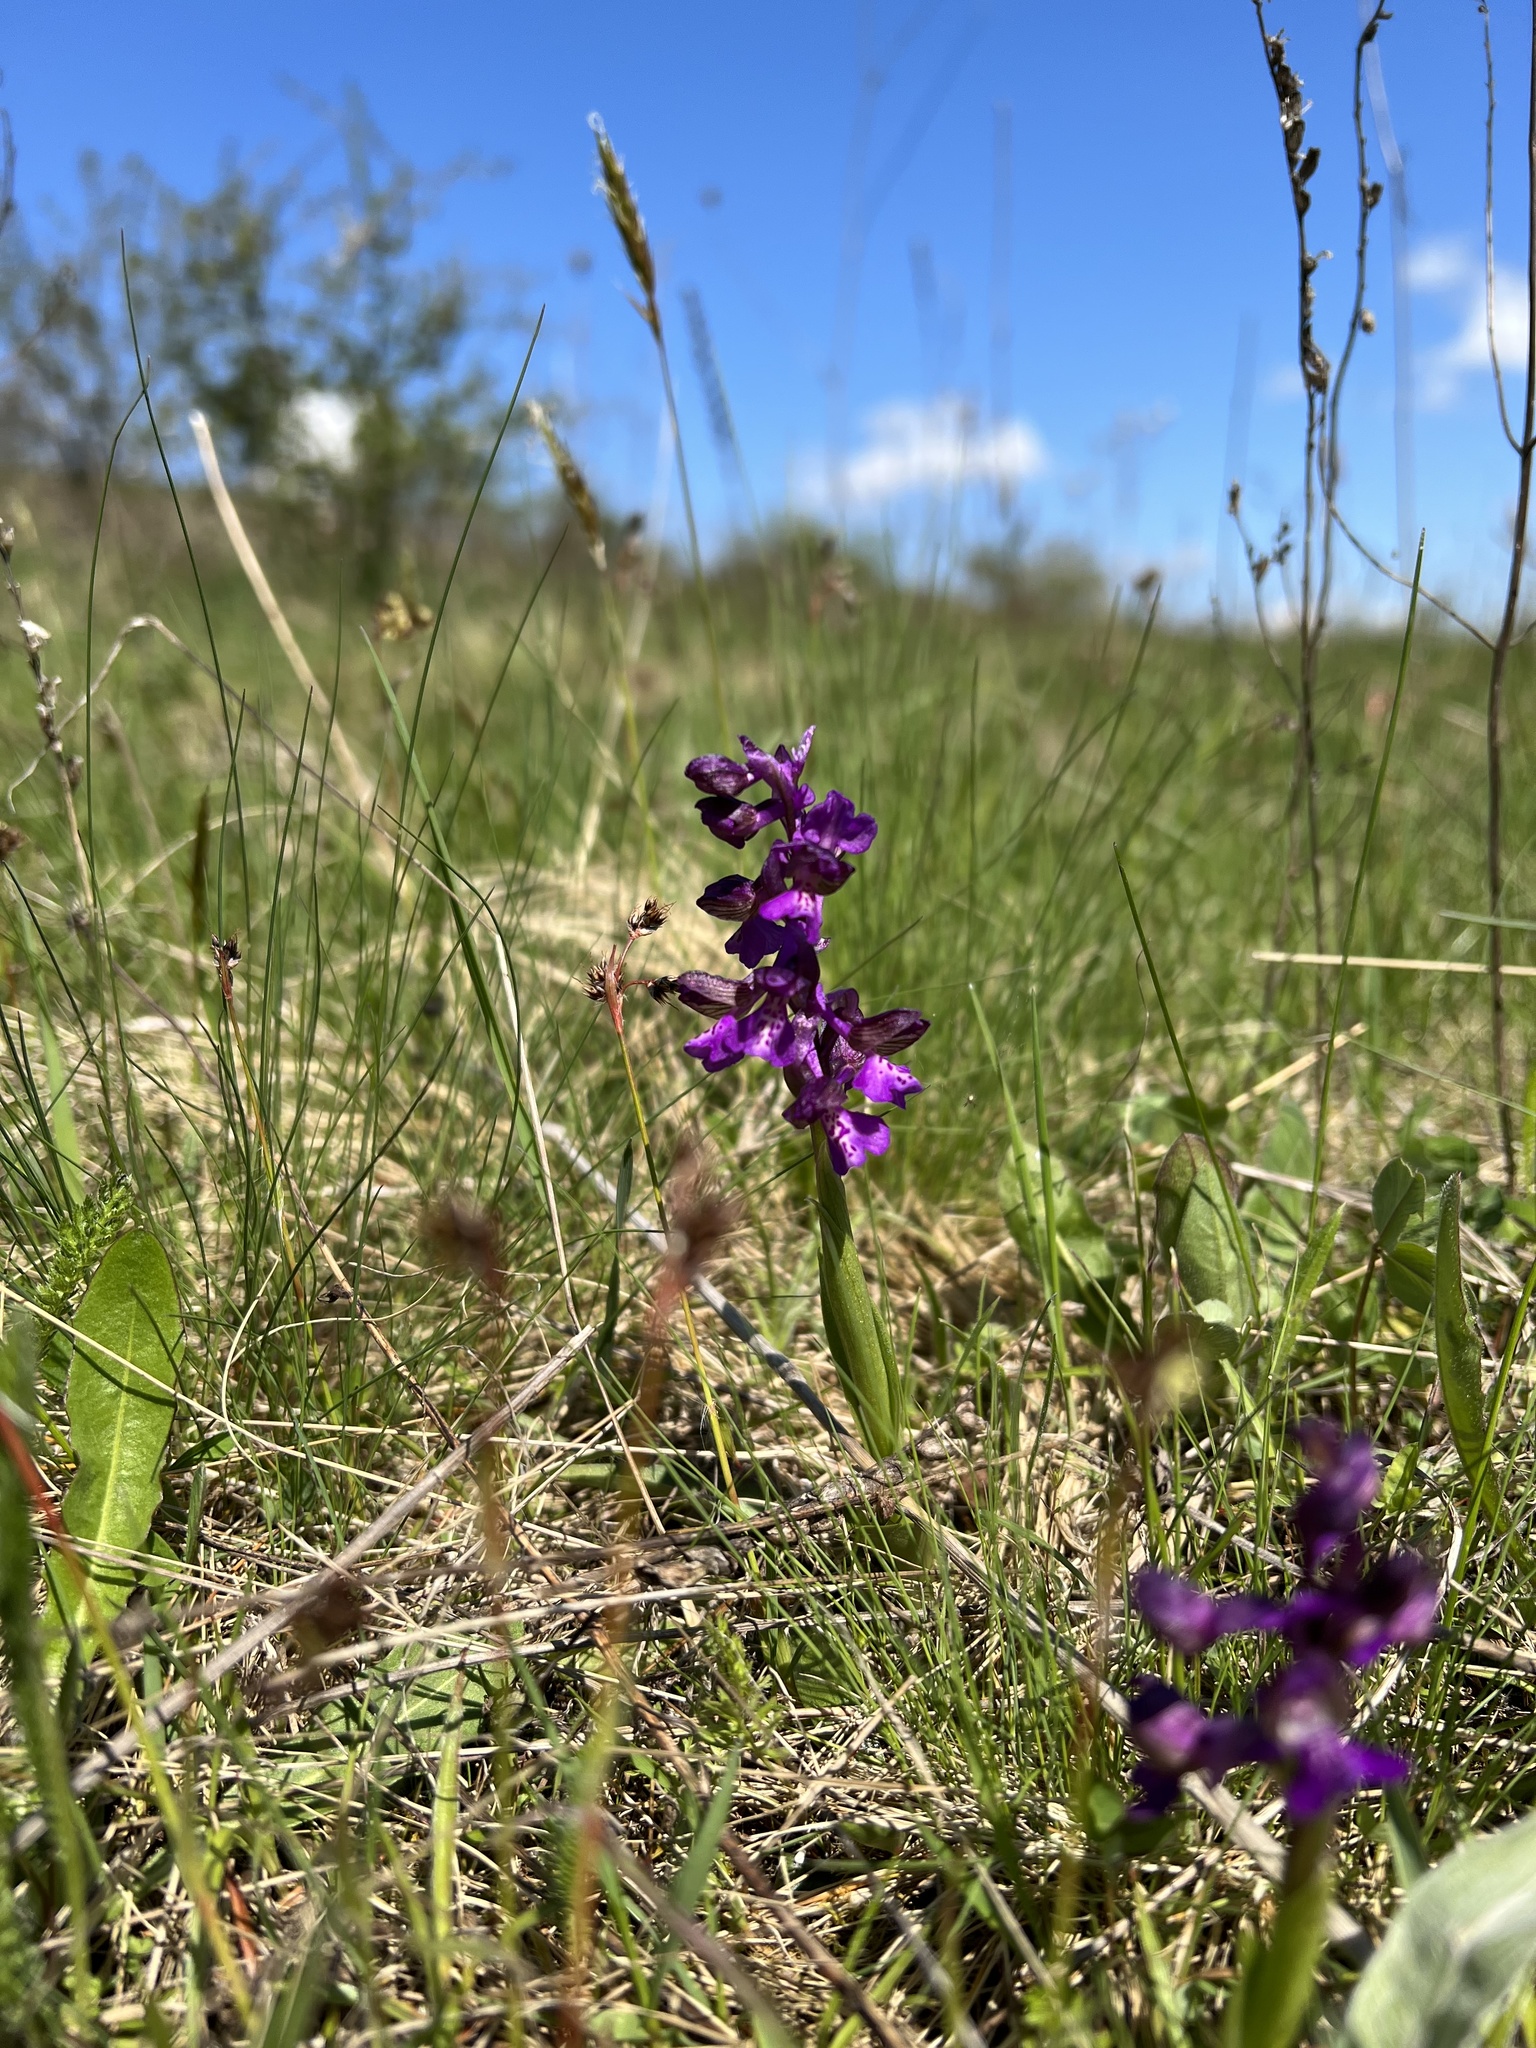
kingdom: Plantae
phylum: Tracheophyta
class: Liliopsida
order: Asparagales
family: Orchidaceae
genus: Anacamptis
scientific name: Anacamptis morio
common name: Green-winged orchid
